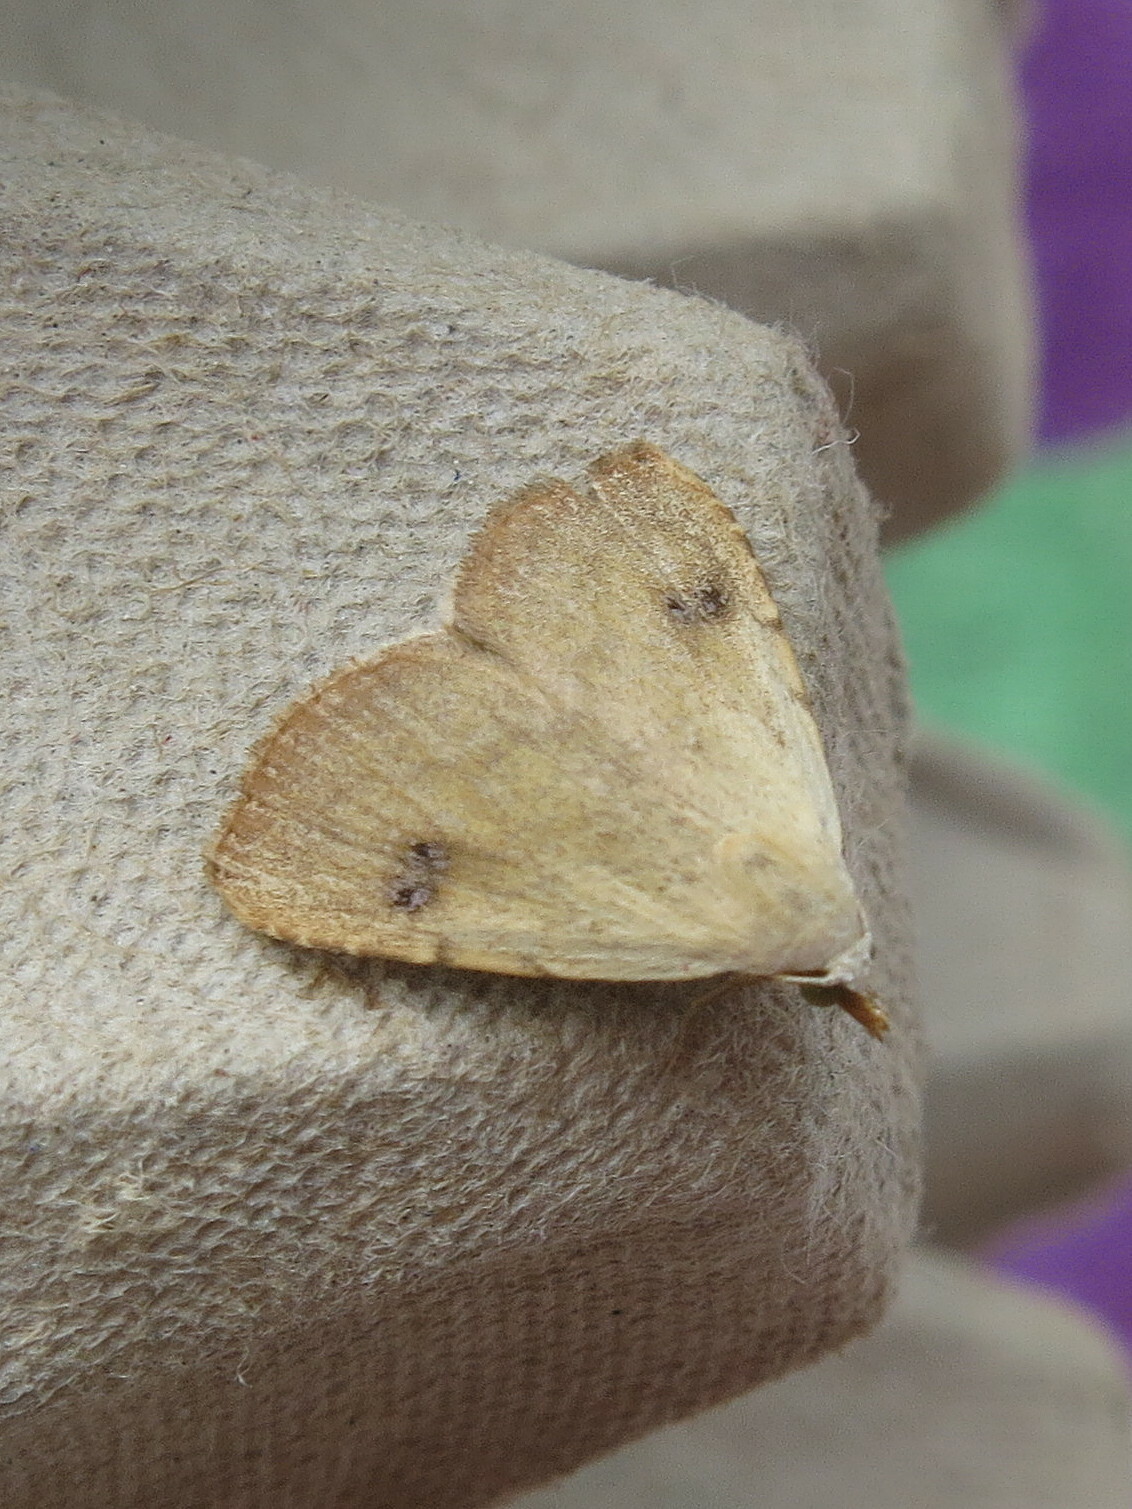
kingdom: Animalia
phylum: Arthropoda
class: Insecta
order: Lepidoptera
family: Erebidae
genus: Rivula
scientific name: Rivula sericealis
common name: Straw dot
